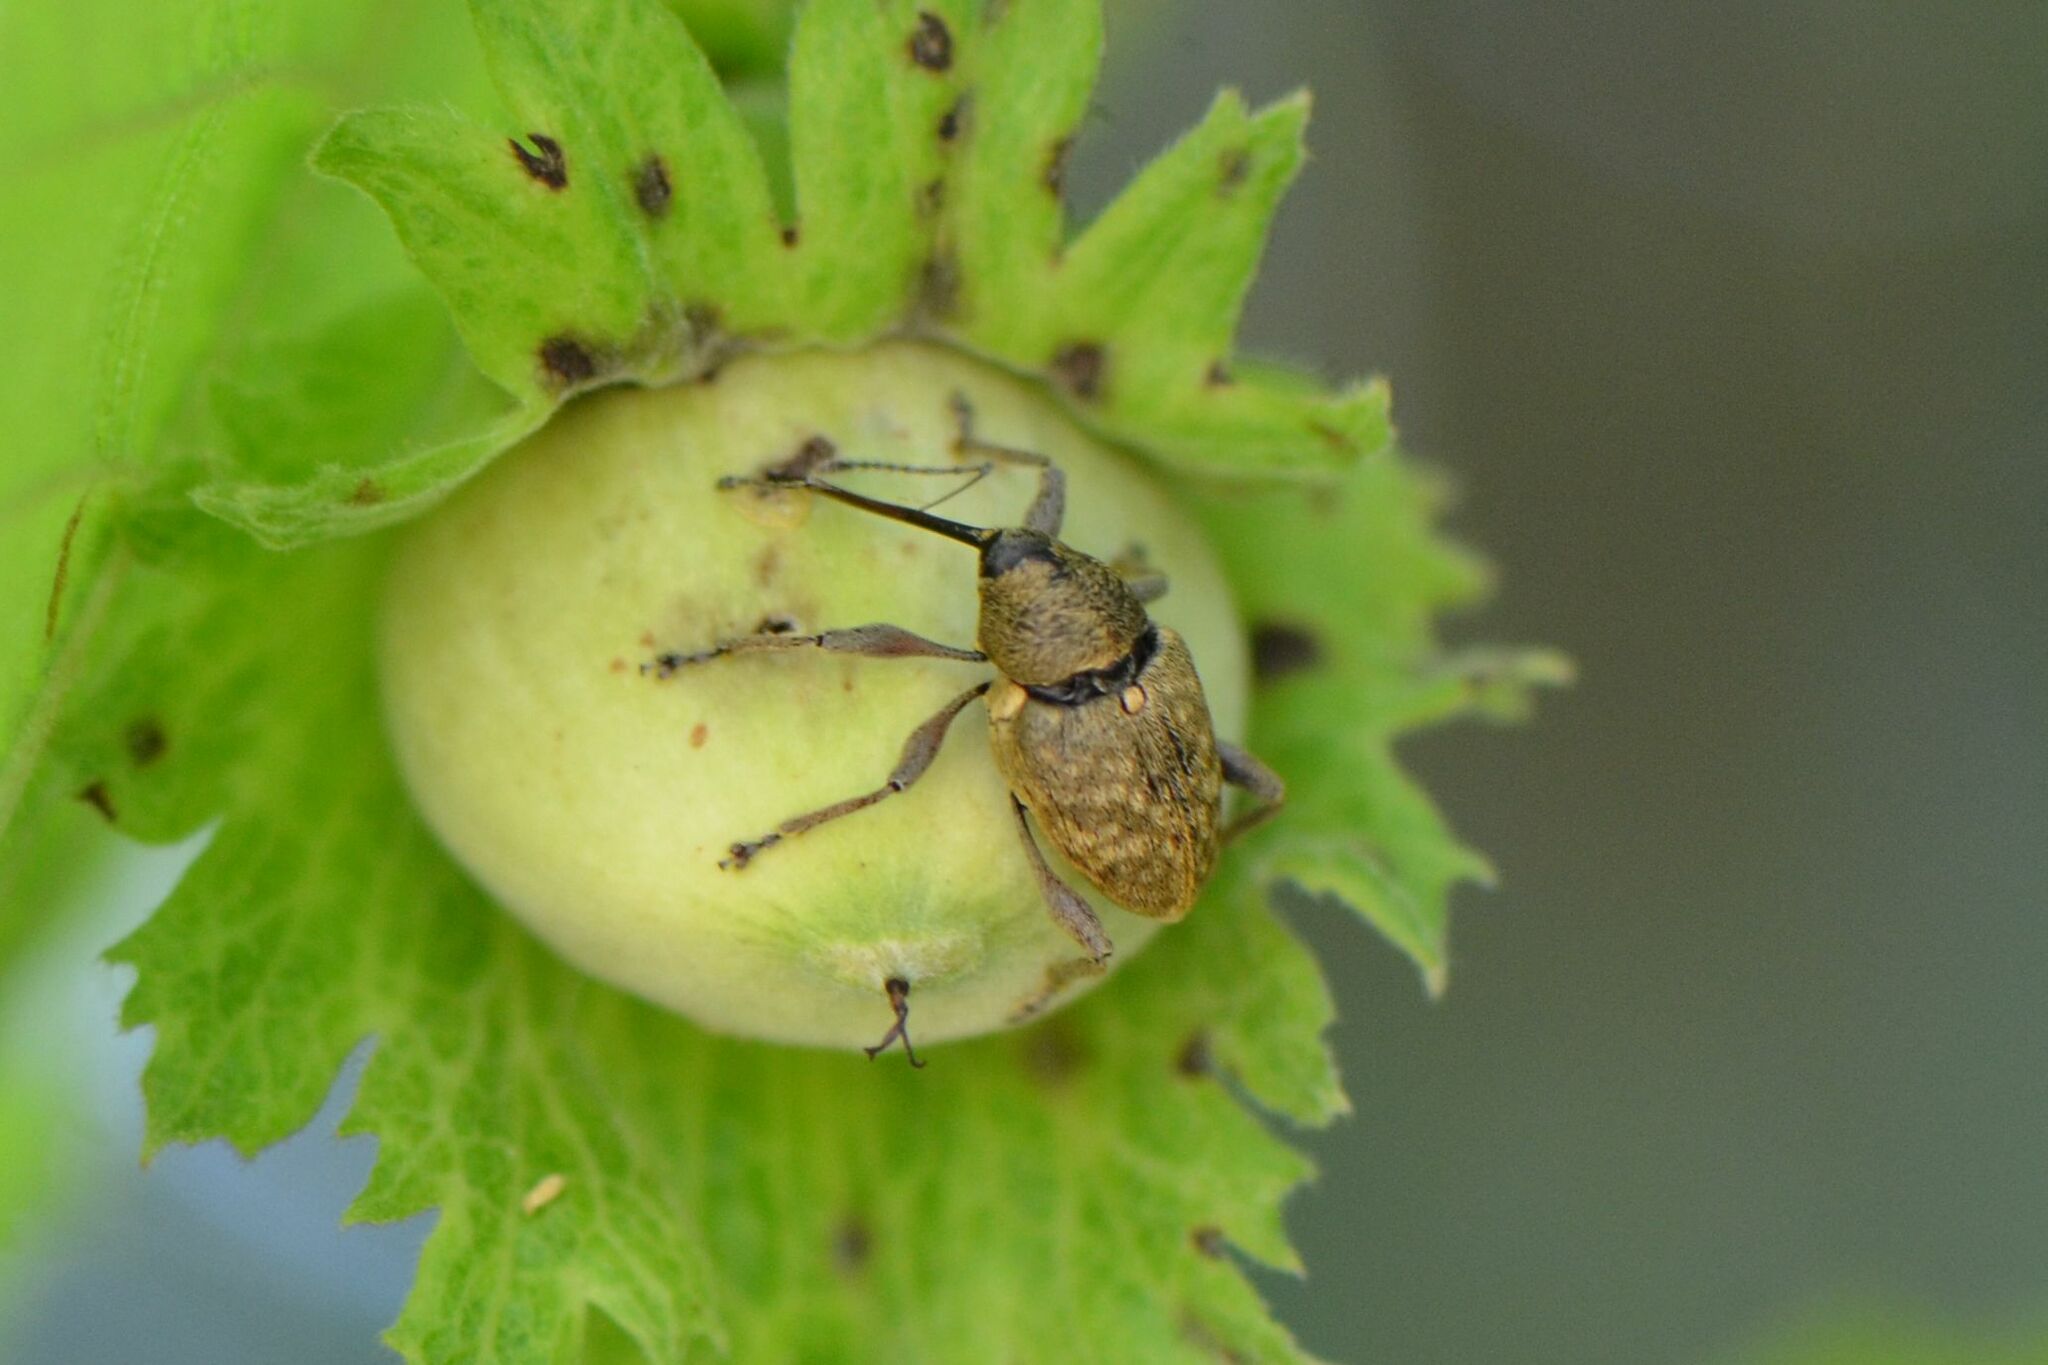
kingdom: Animalia
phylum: Arthropoda
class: Insecta
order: Coleoptera
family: Curculionidae
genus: Curculio
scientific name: Curculio nucum
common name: Nut weevil
